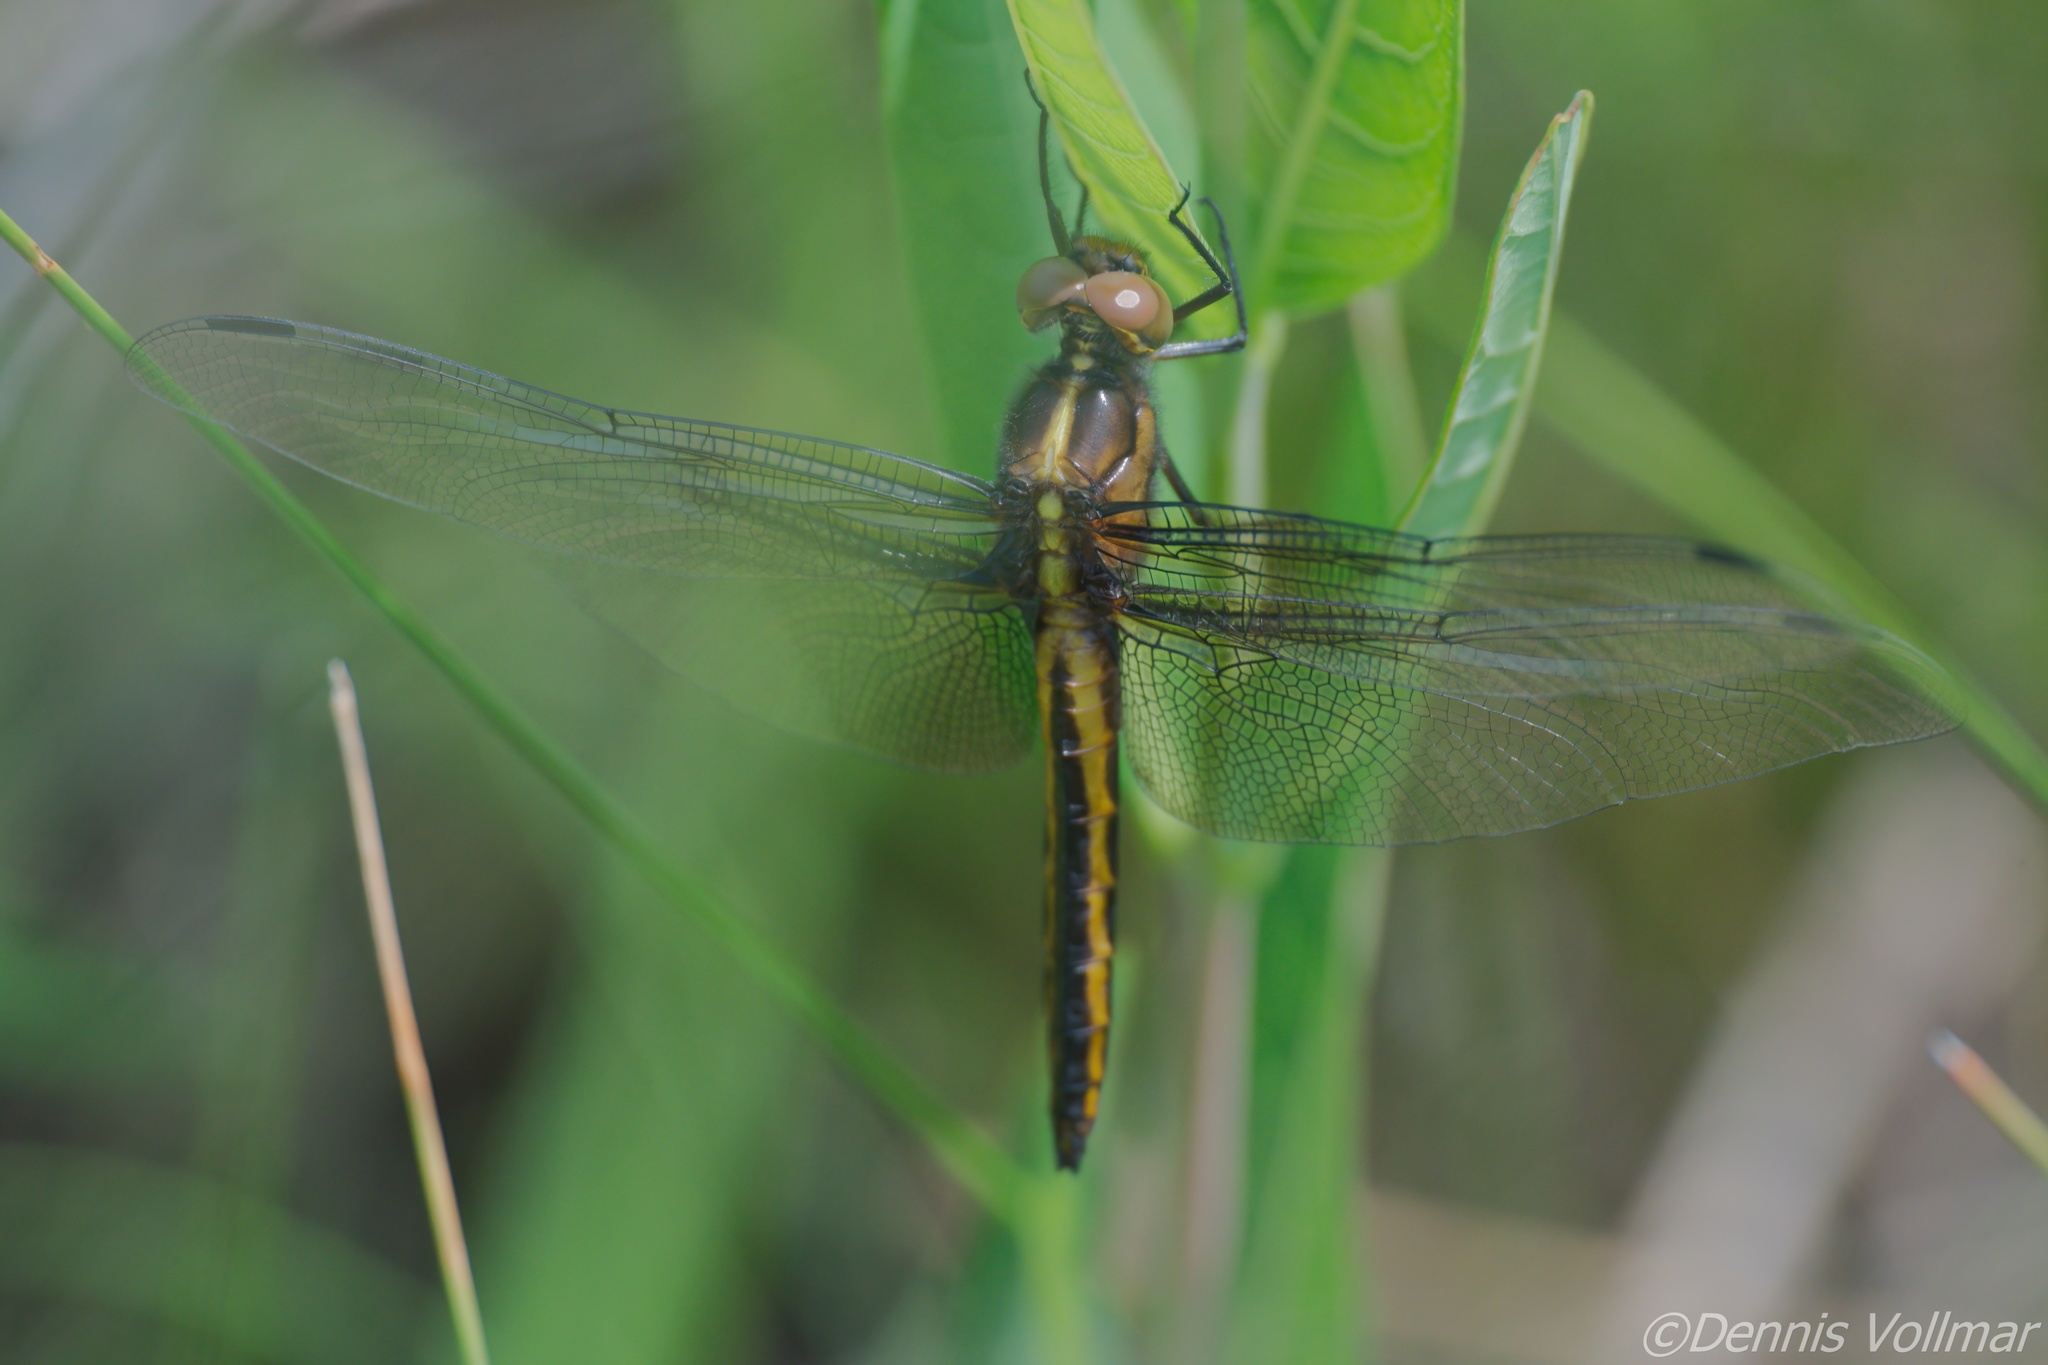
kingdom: Animalia
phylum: Arthropoda
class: Insecta
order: Odonata
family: Libellulidae
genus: Libellula
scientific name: Libellula luctuosa
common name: Widow skimmer
